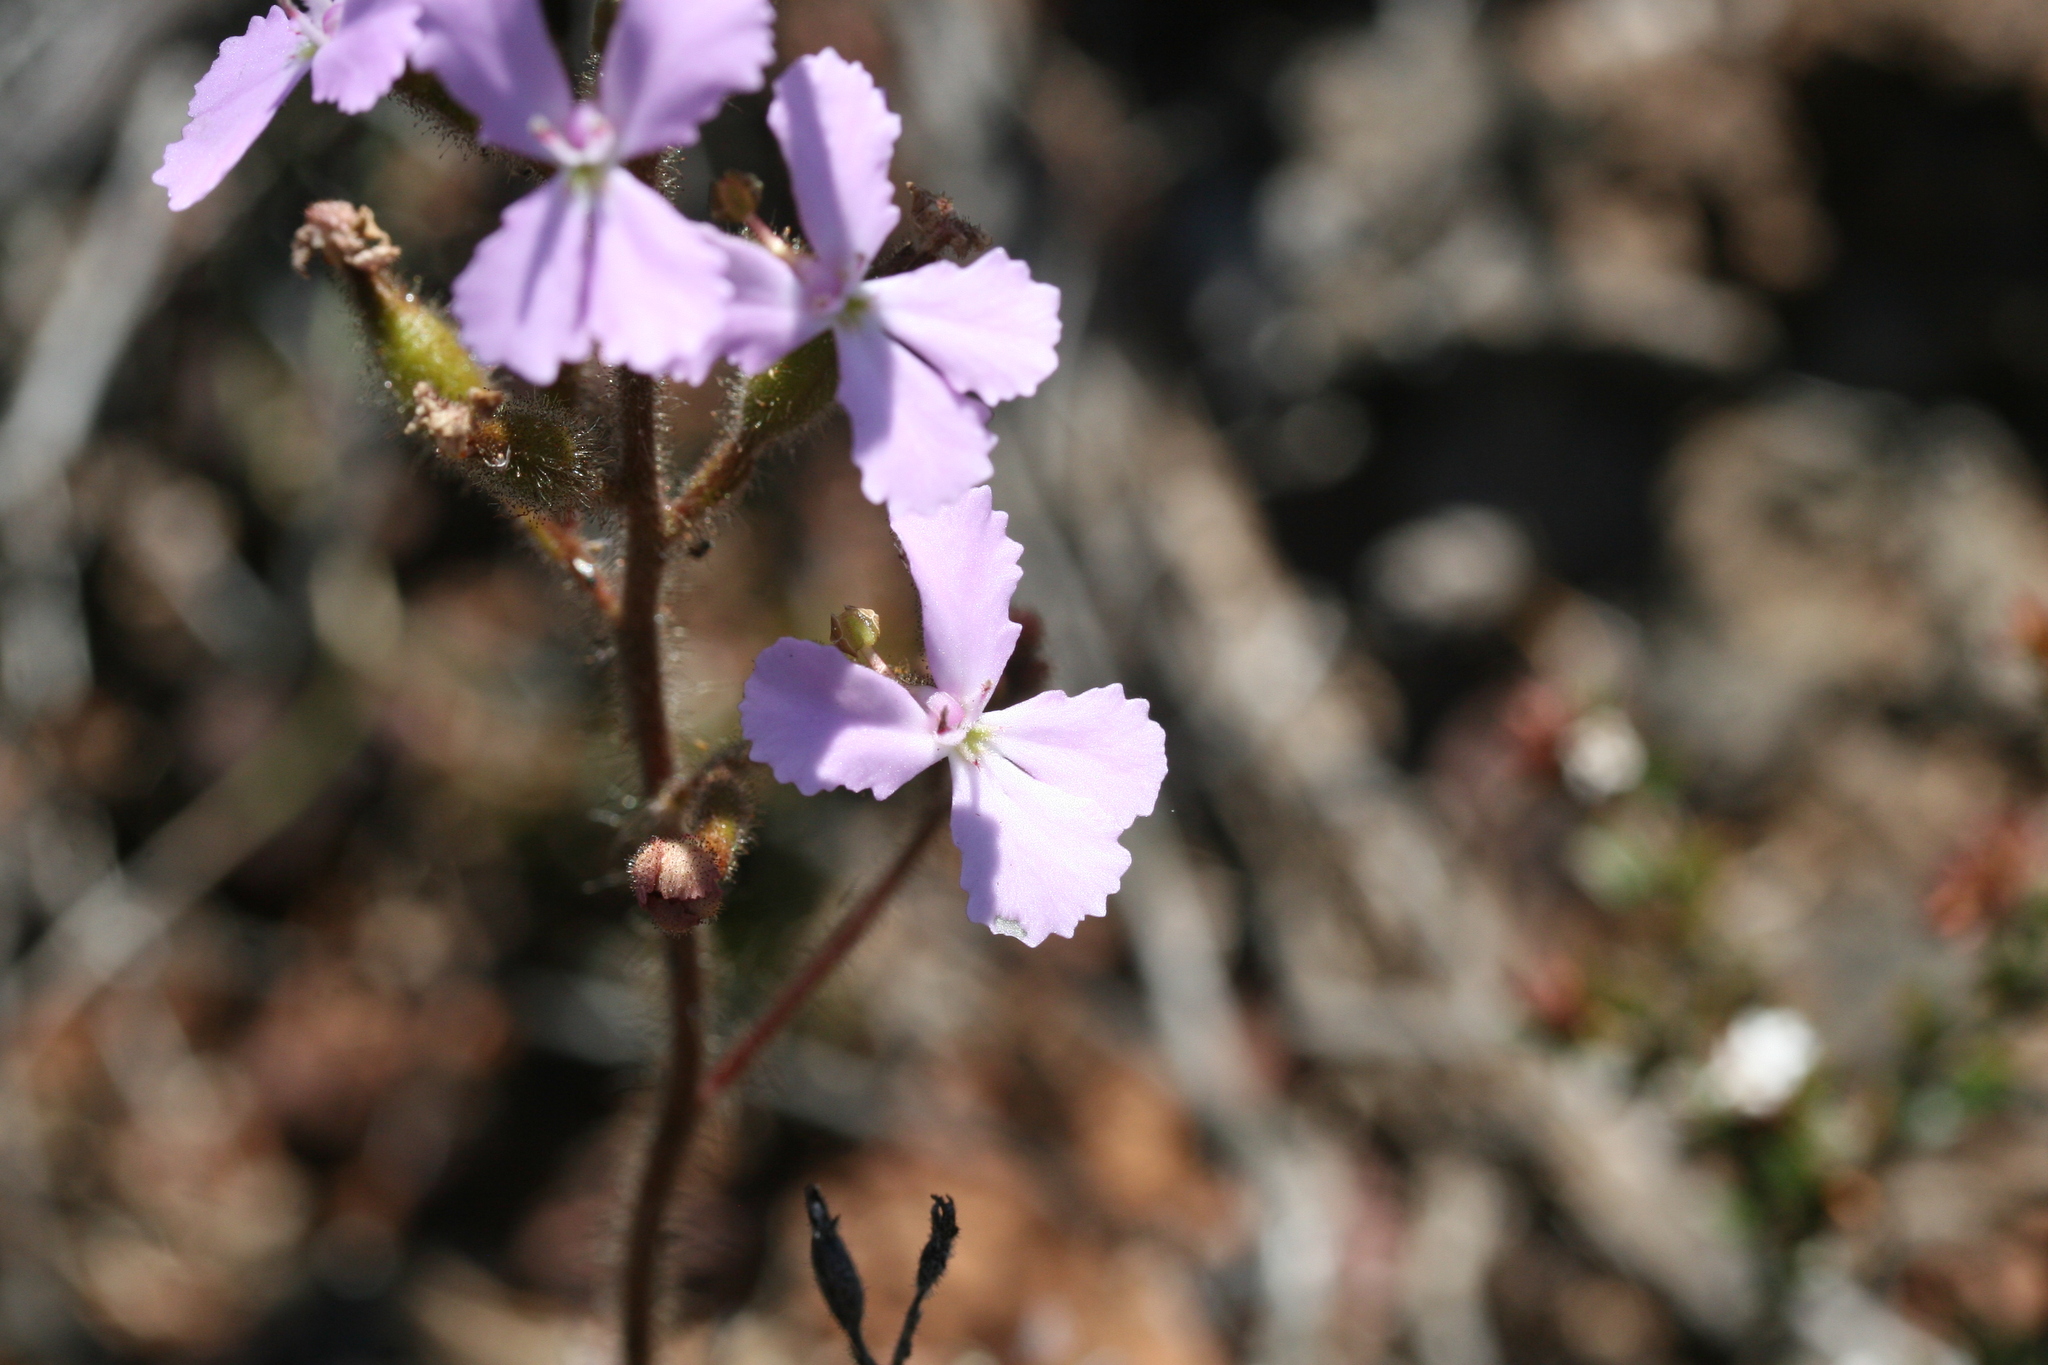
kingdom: Plantae
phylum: Tracheophyta
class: Magnoliopsida
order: Asterales
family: Stylidiaceae
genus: Stylidium
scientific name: Stylidium albomontis
